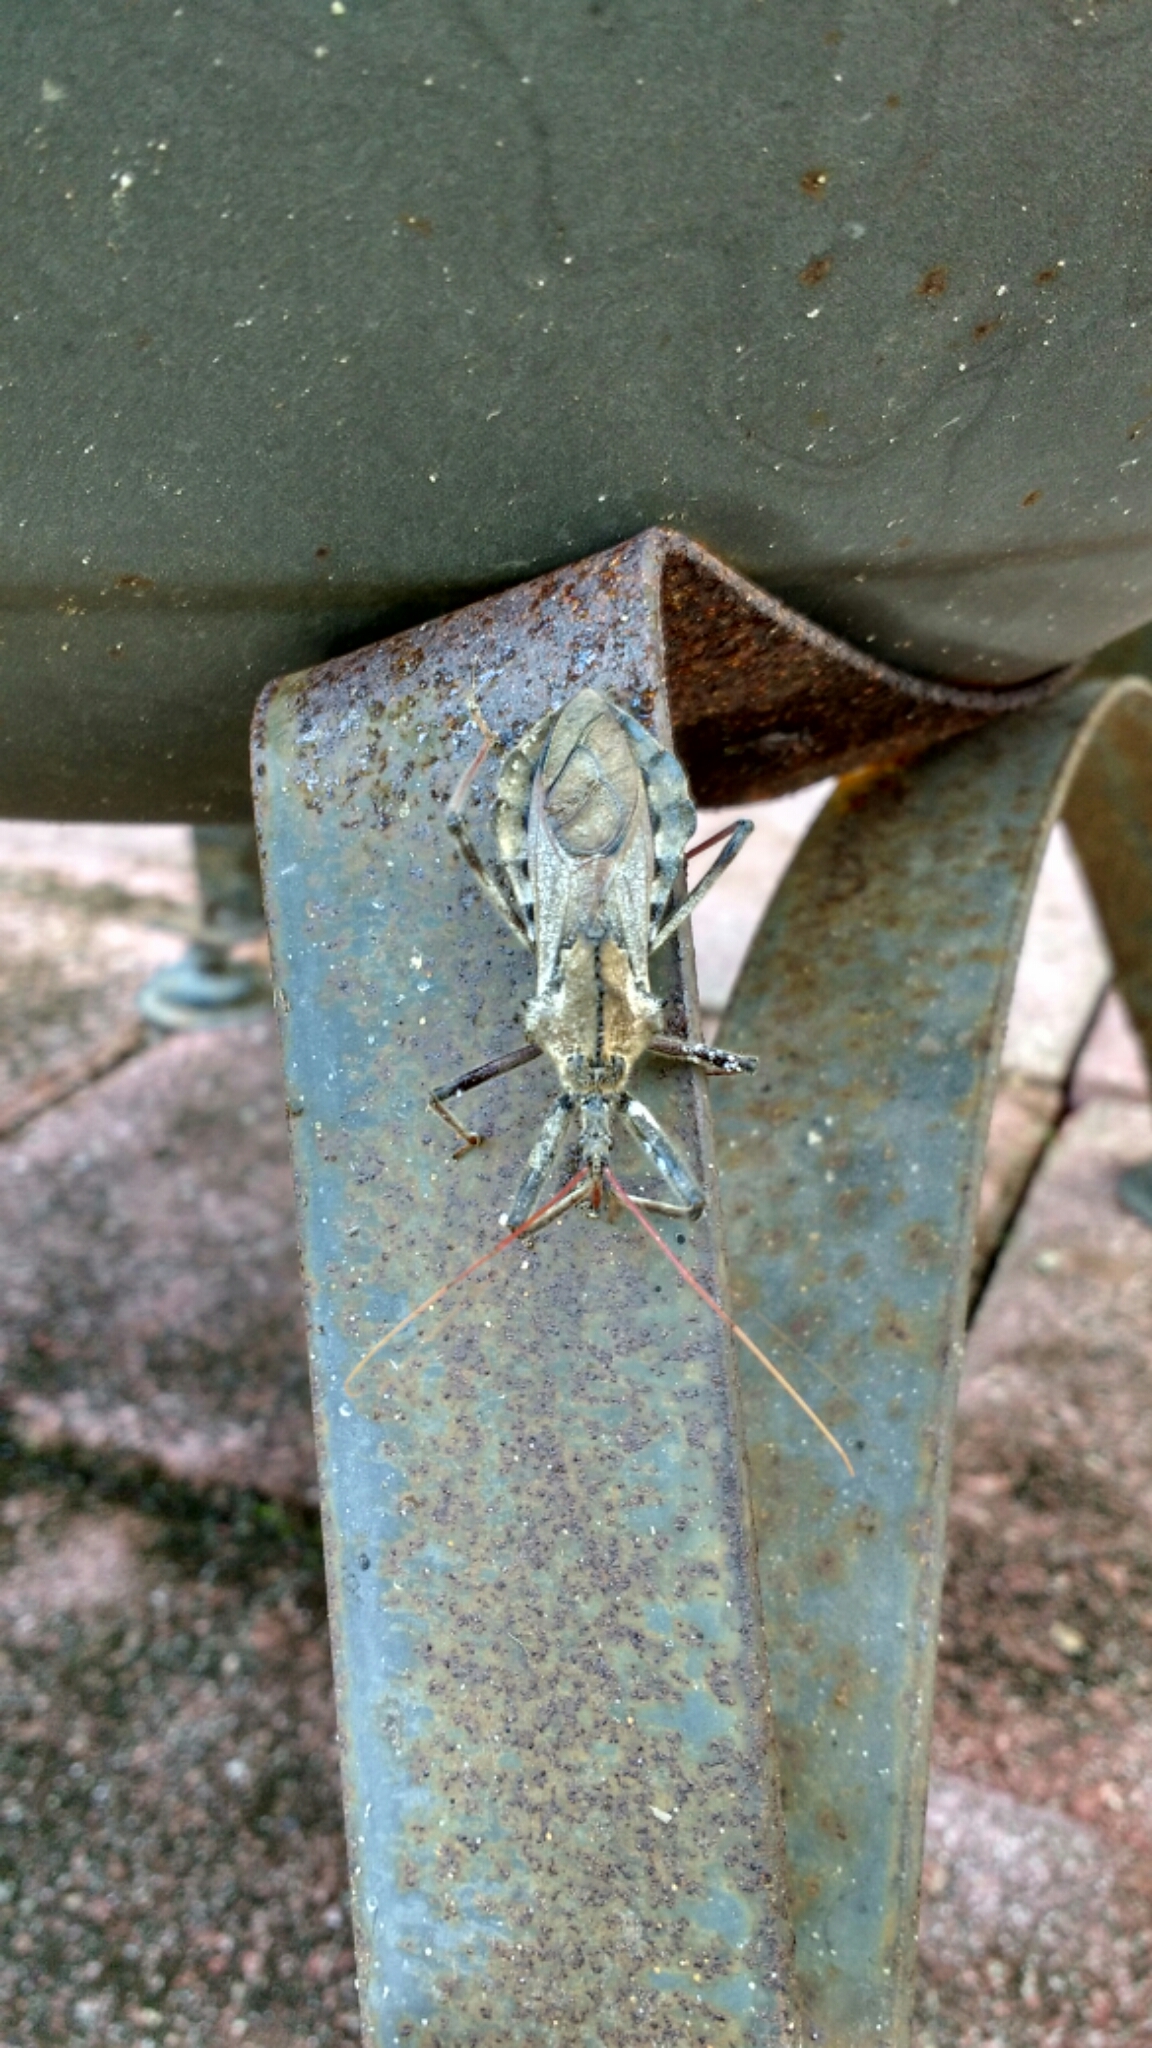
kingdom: Animalia
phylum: Arthropoda
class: Insecta
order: Hemiptera
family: Reduviidae
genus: Arilus
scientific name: Arilus cristatus
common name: North american wheel bug
